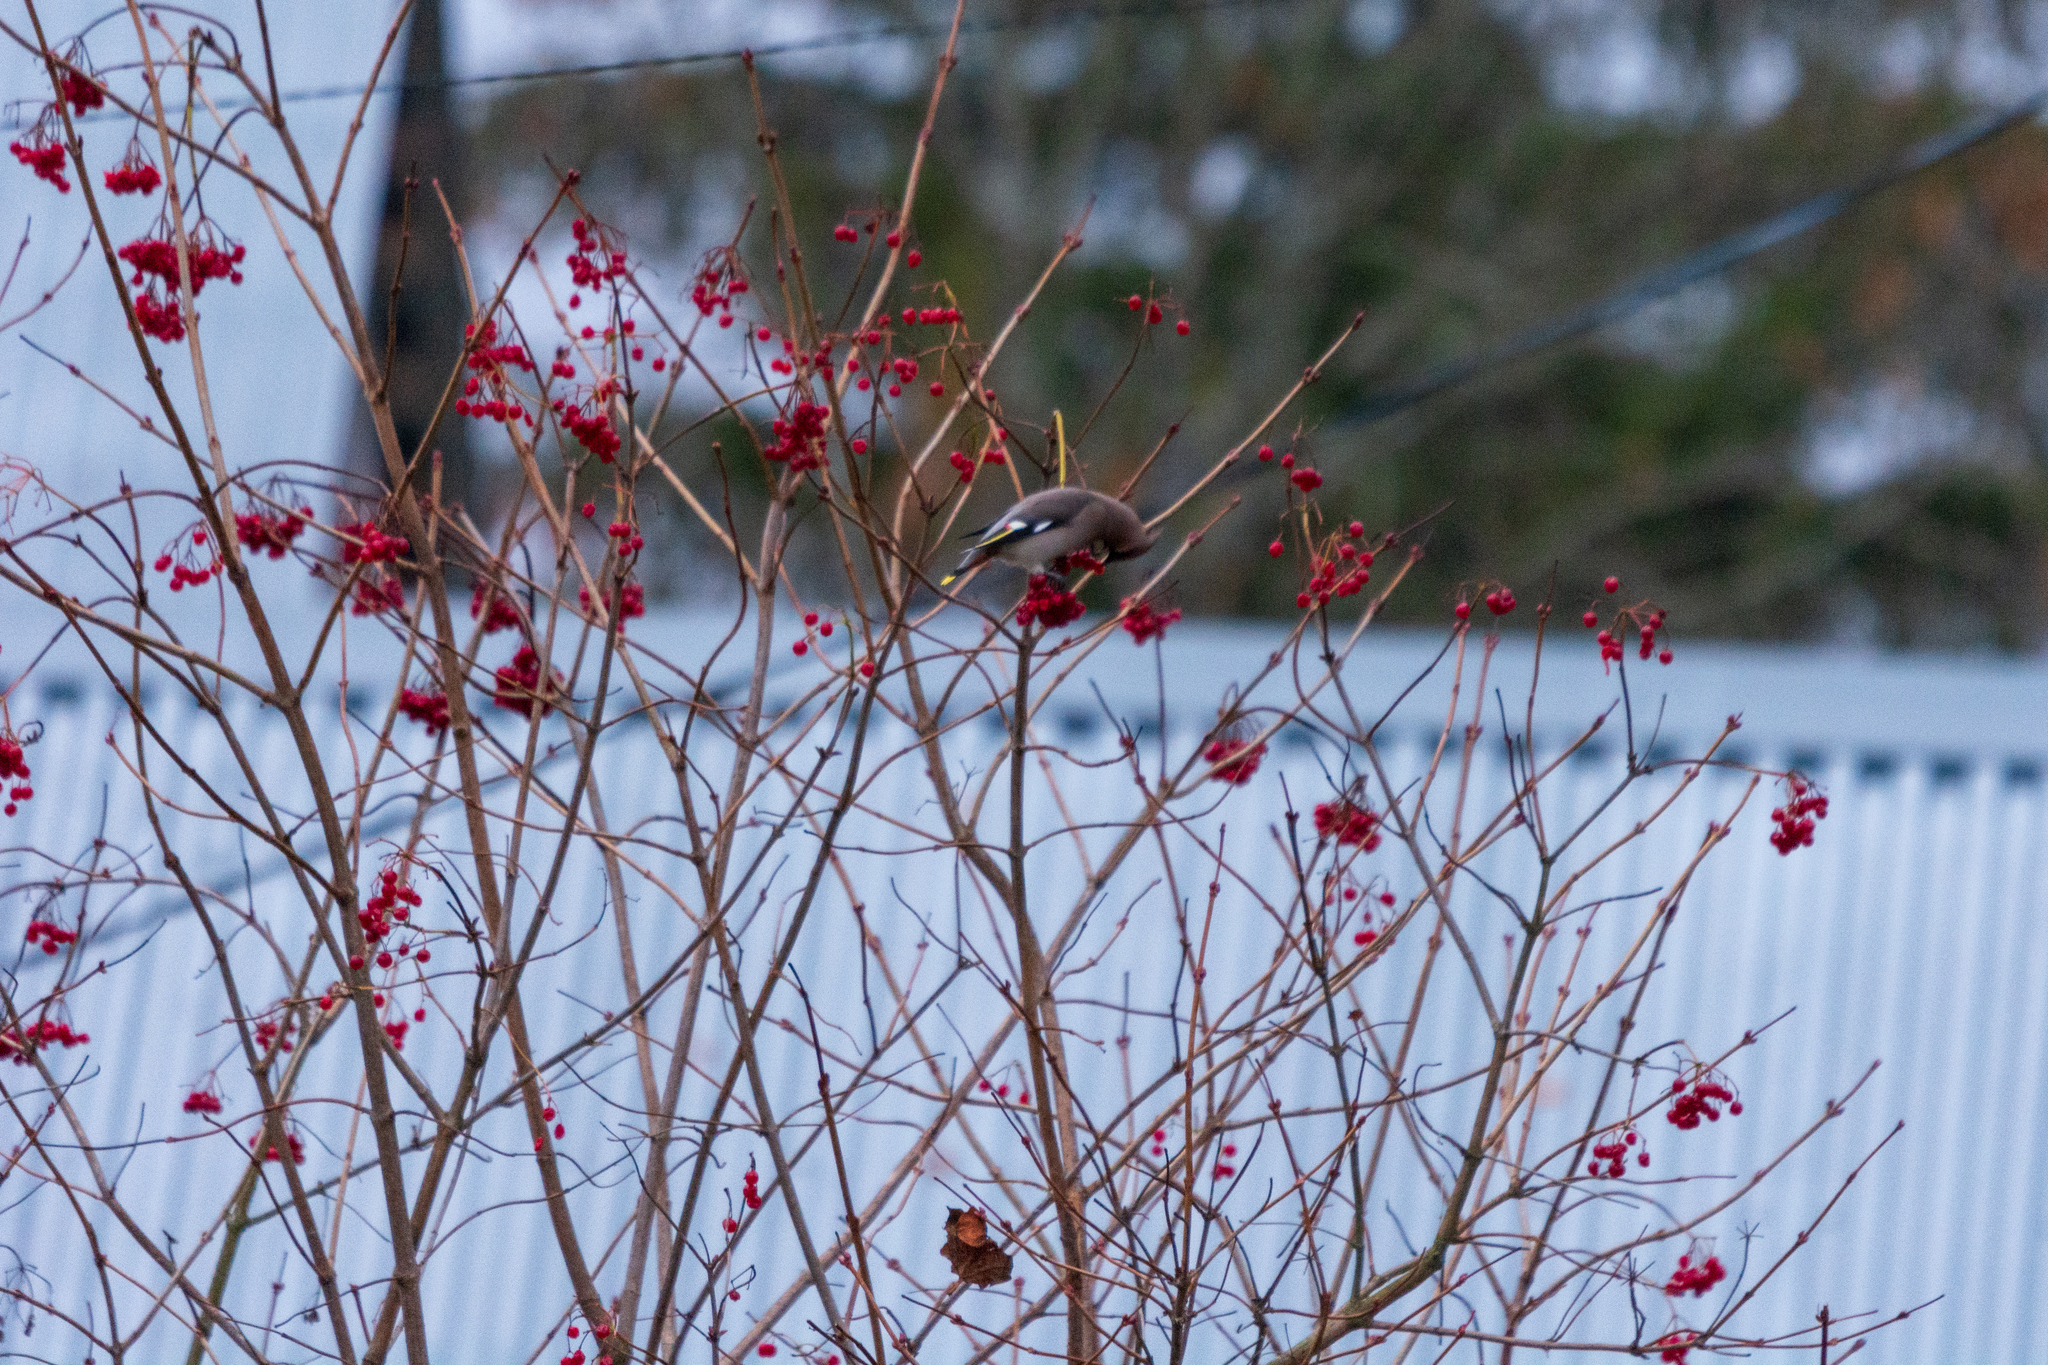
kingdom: Animalia
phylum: Chordata
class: Aves
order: Passeriformes
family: Bombycillidae
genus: Bombycilla
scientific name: Bombycilla garrulus
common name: Bohemian waxwing
